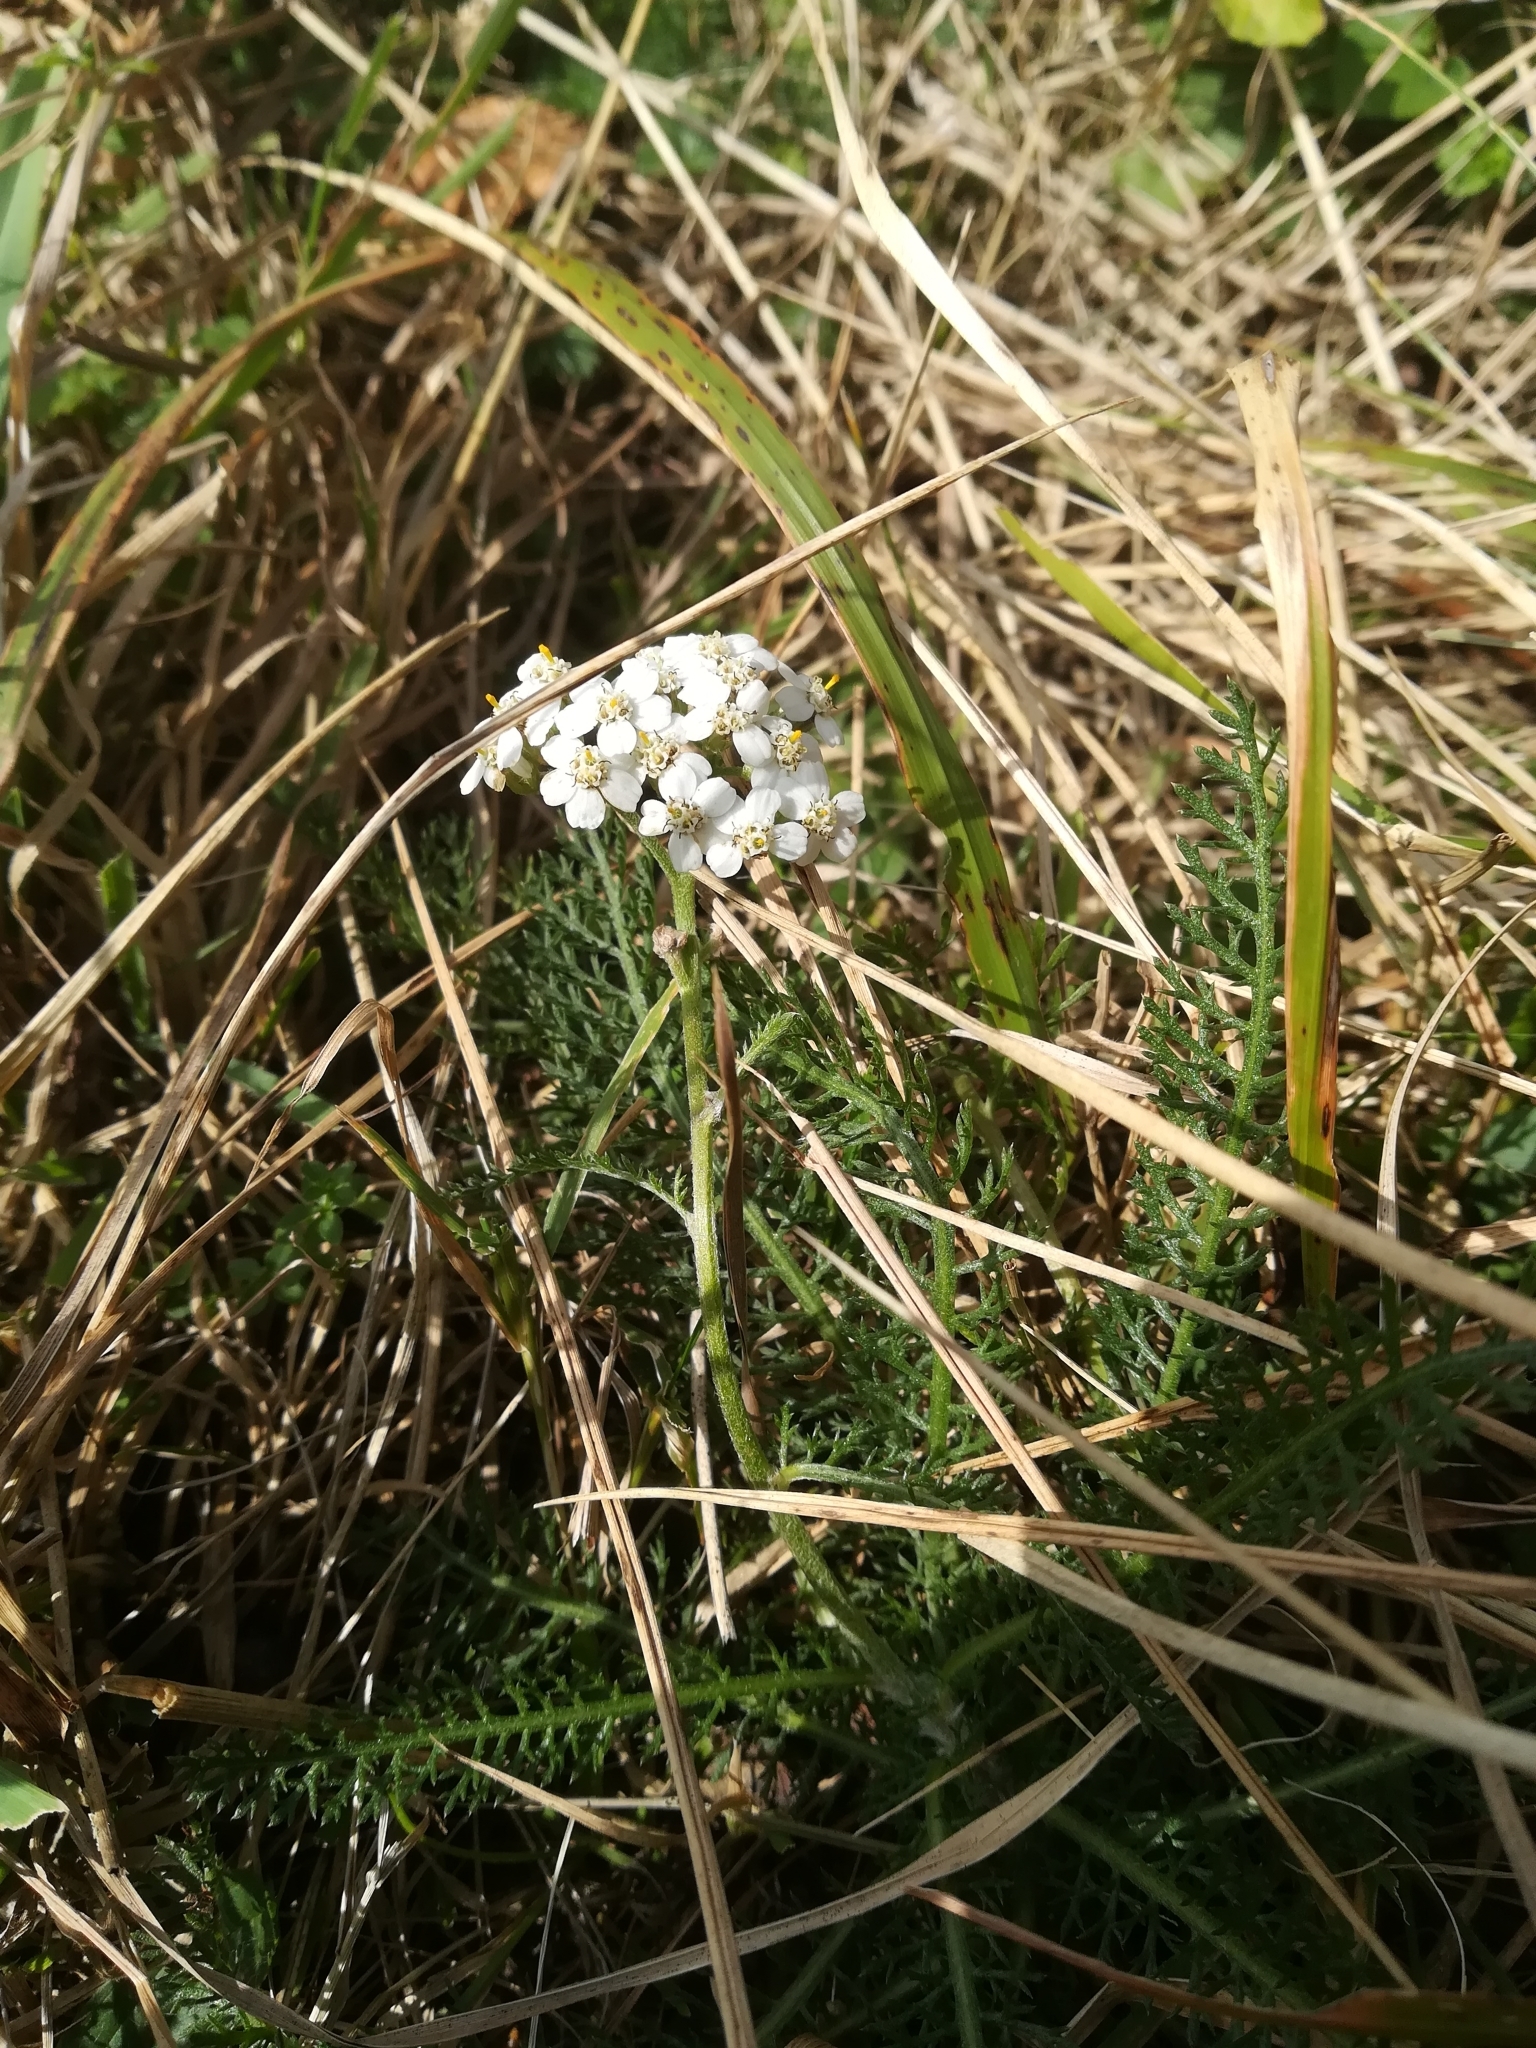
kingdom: Plantae
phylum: Tracheophyta
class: Magnoliopsida
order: Asterales
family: Asteraceae
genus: Achillea
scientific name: Achillea millefolium
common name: Yarrow
